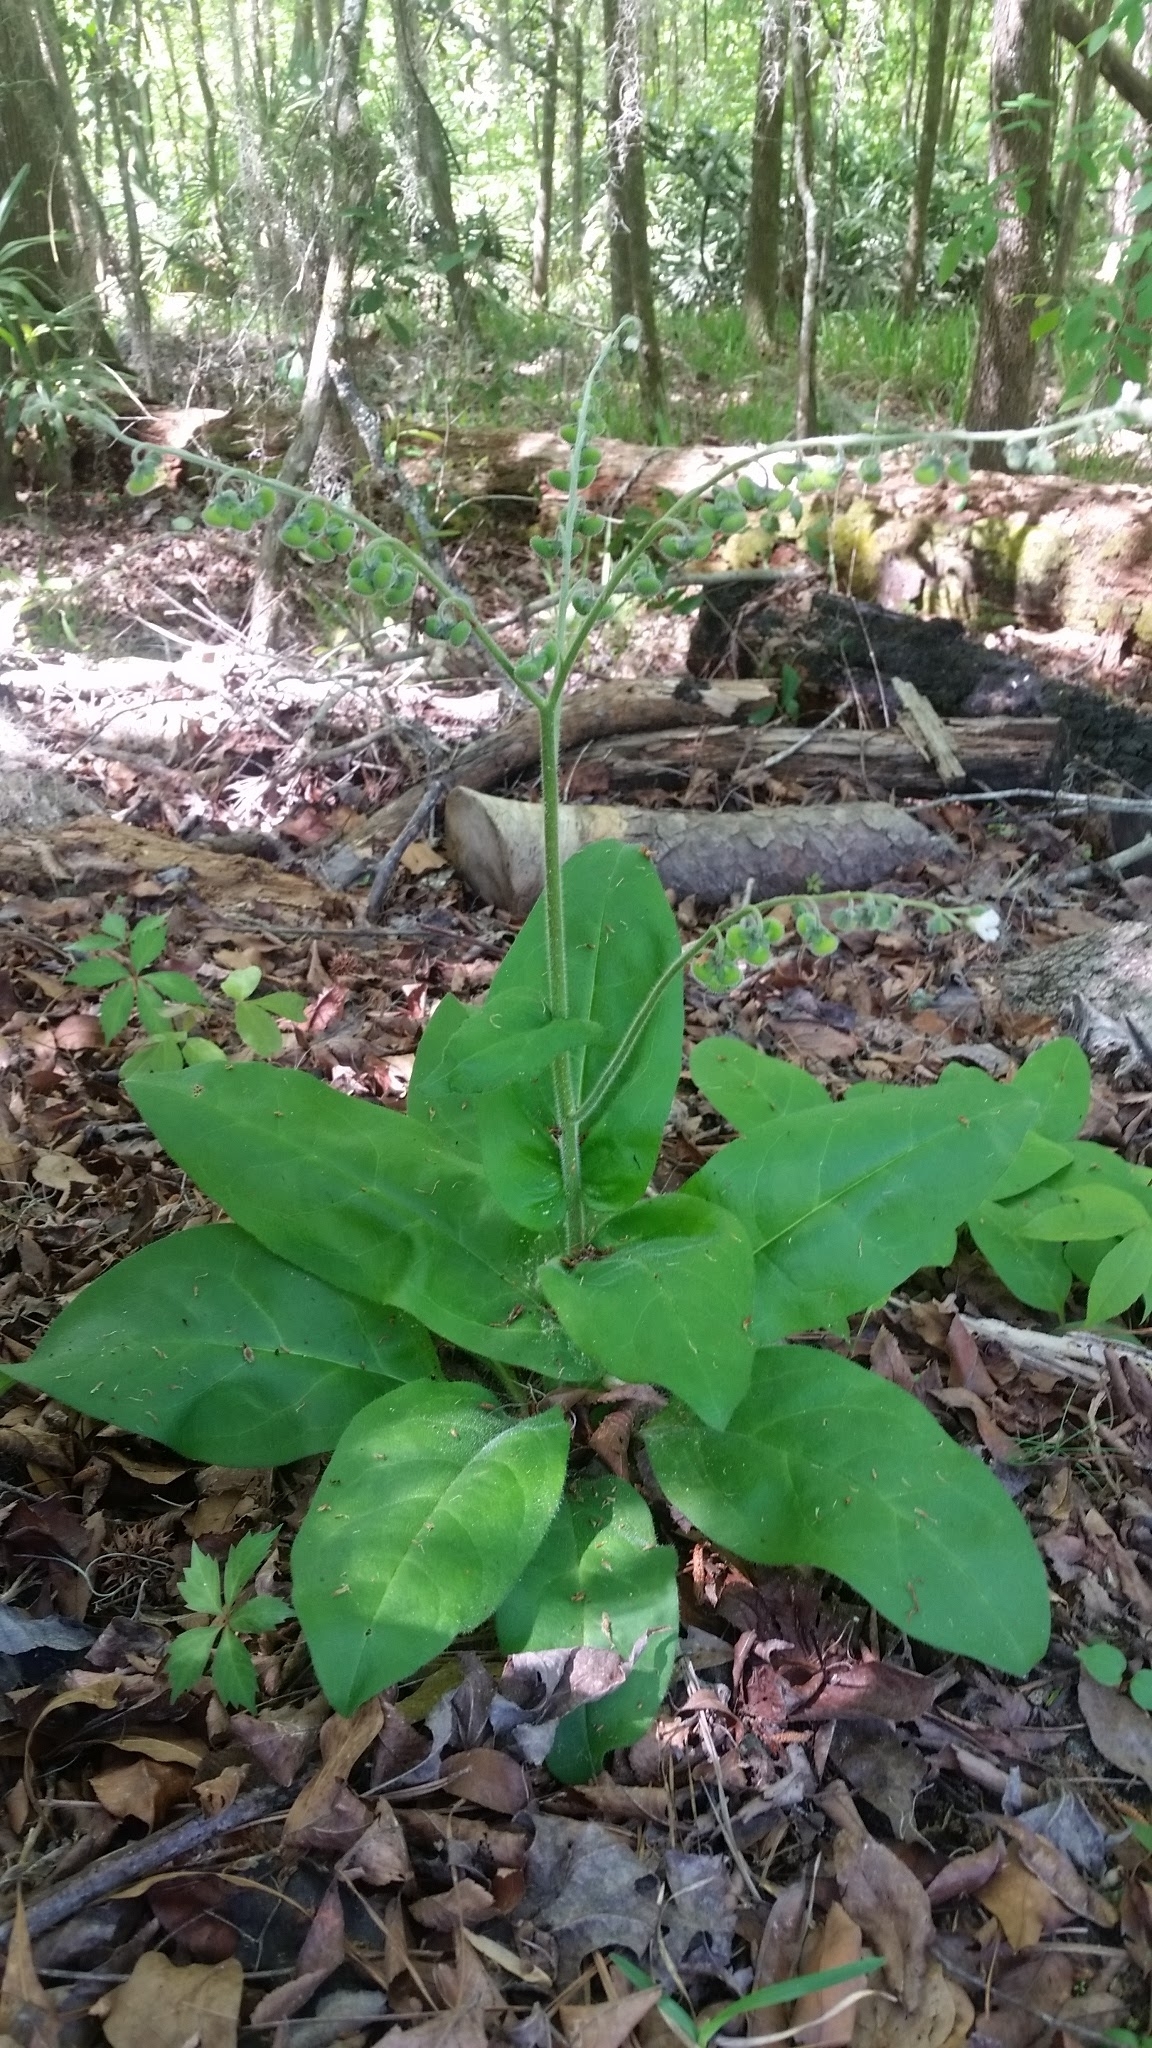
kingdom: Plantae
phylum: Tracheophyta
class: Magnoliopsida
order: Boraginales
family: Boraginaceae
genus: Andersonglossum
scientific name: Andersonglossum virginianum
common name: Wild comfrey
